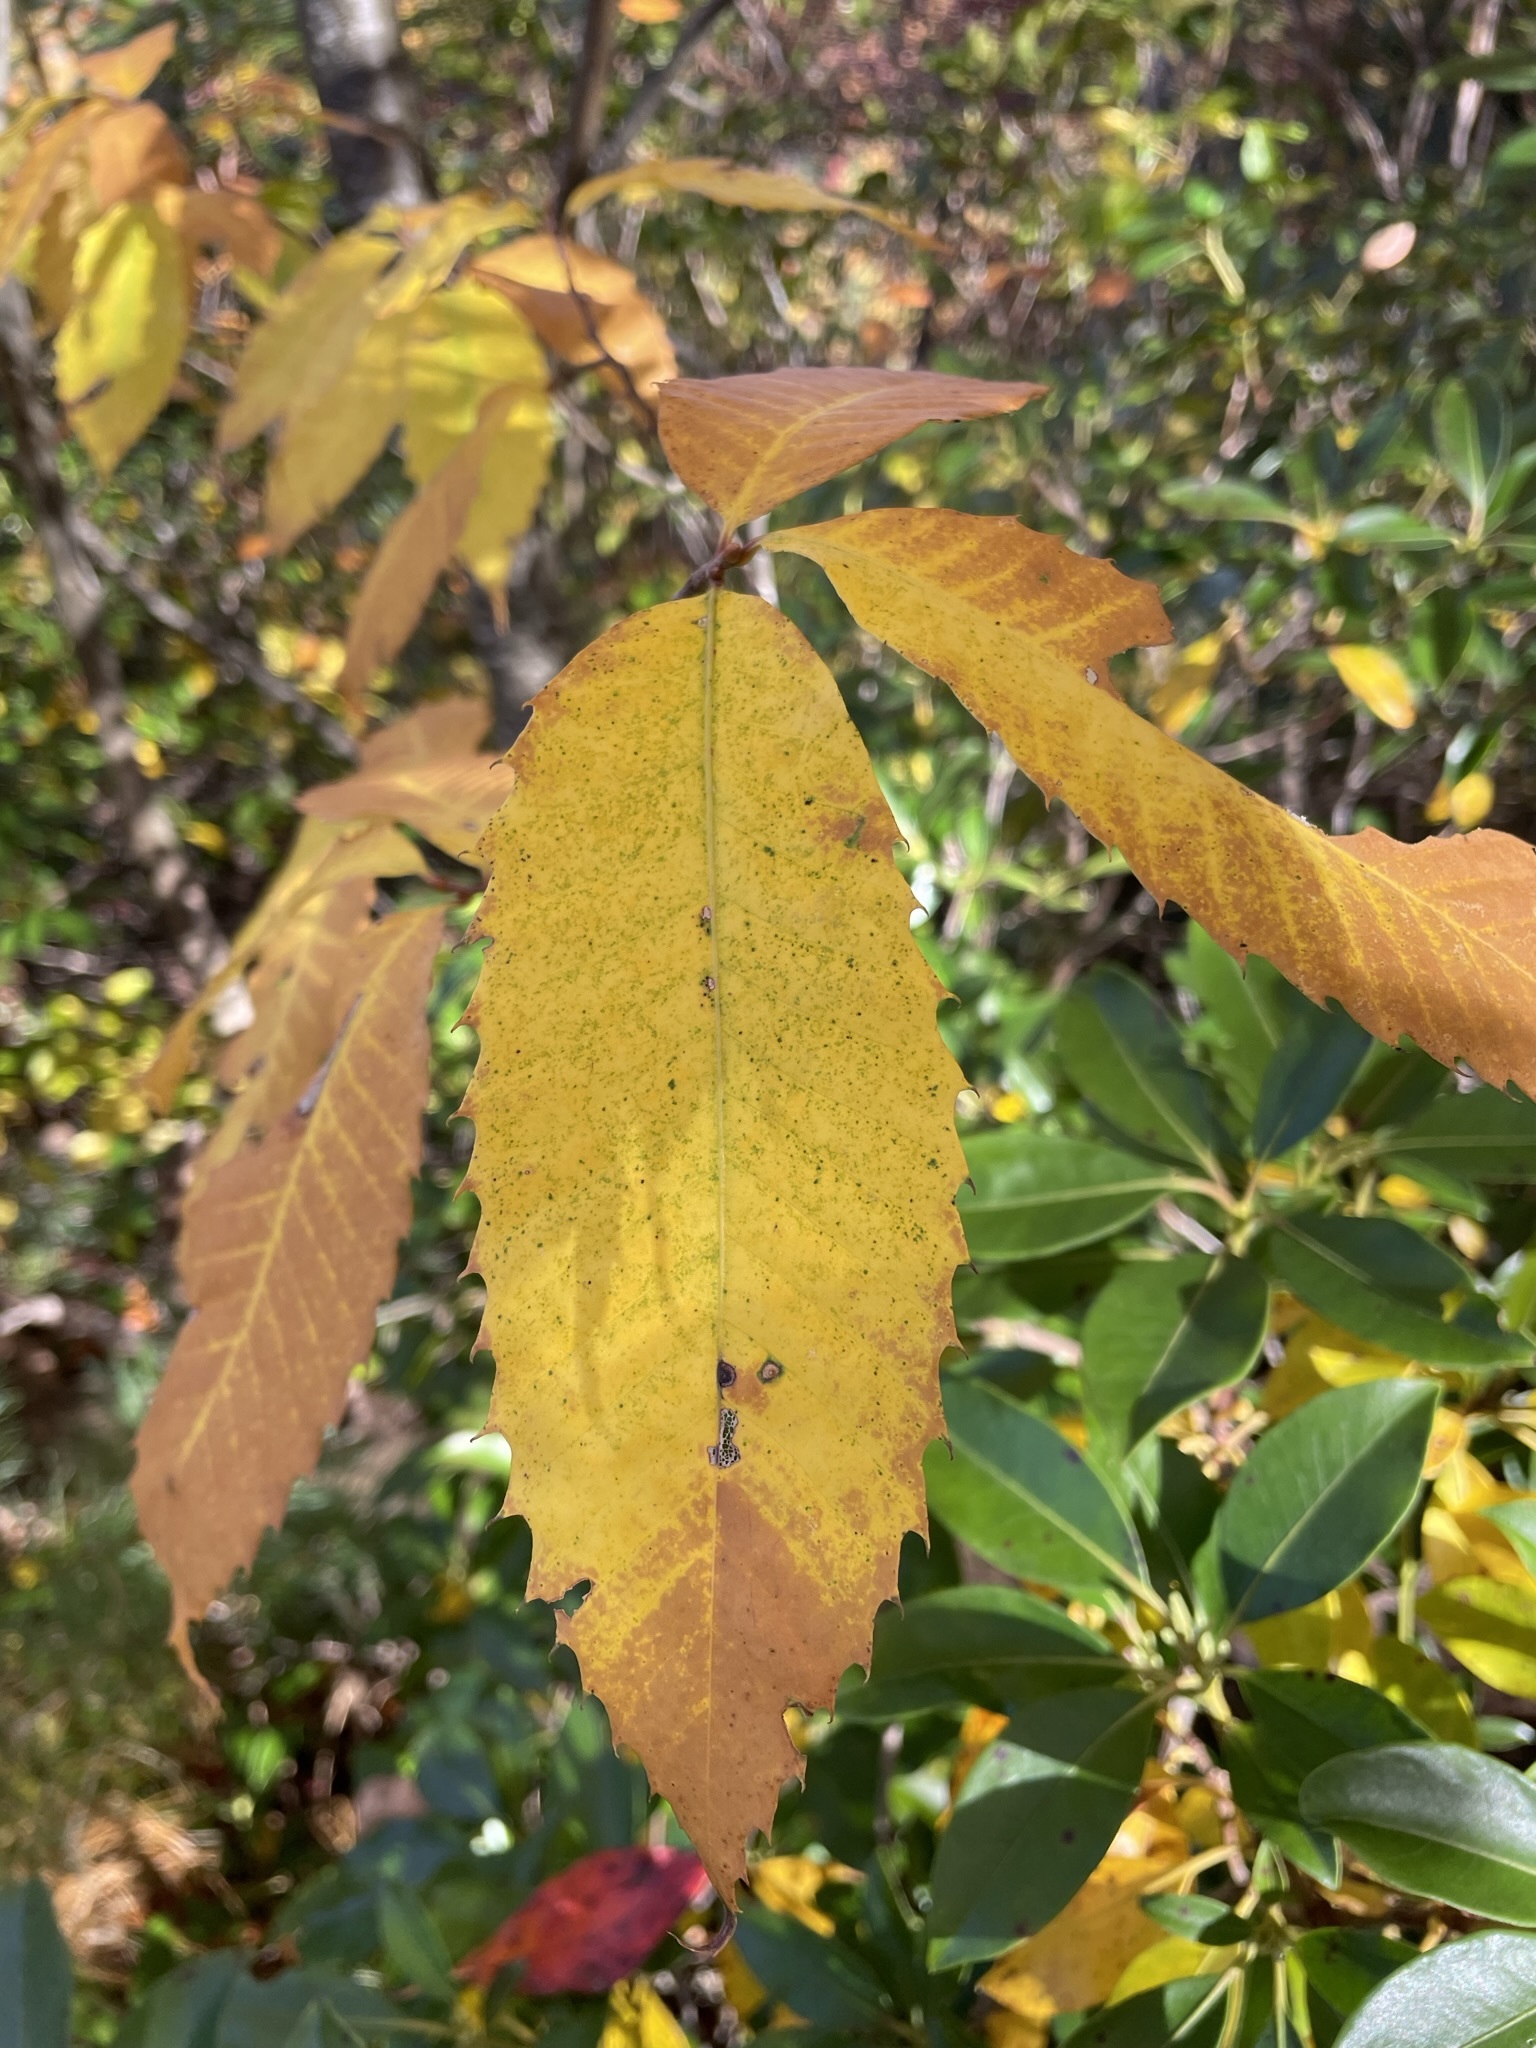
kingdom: Plantae
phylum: Tracheophyta
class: Magnoliopsida
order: Fagales
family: Fagaceae
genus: Castanea
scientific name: Castanea dentata
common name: American chestnut
